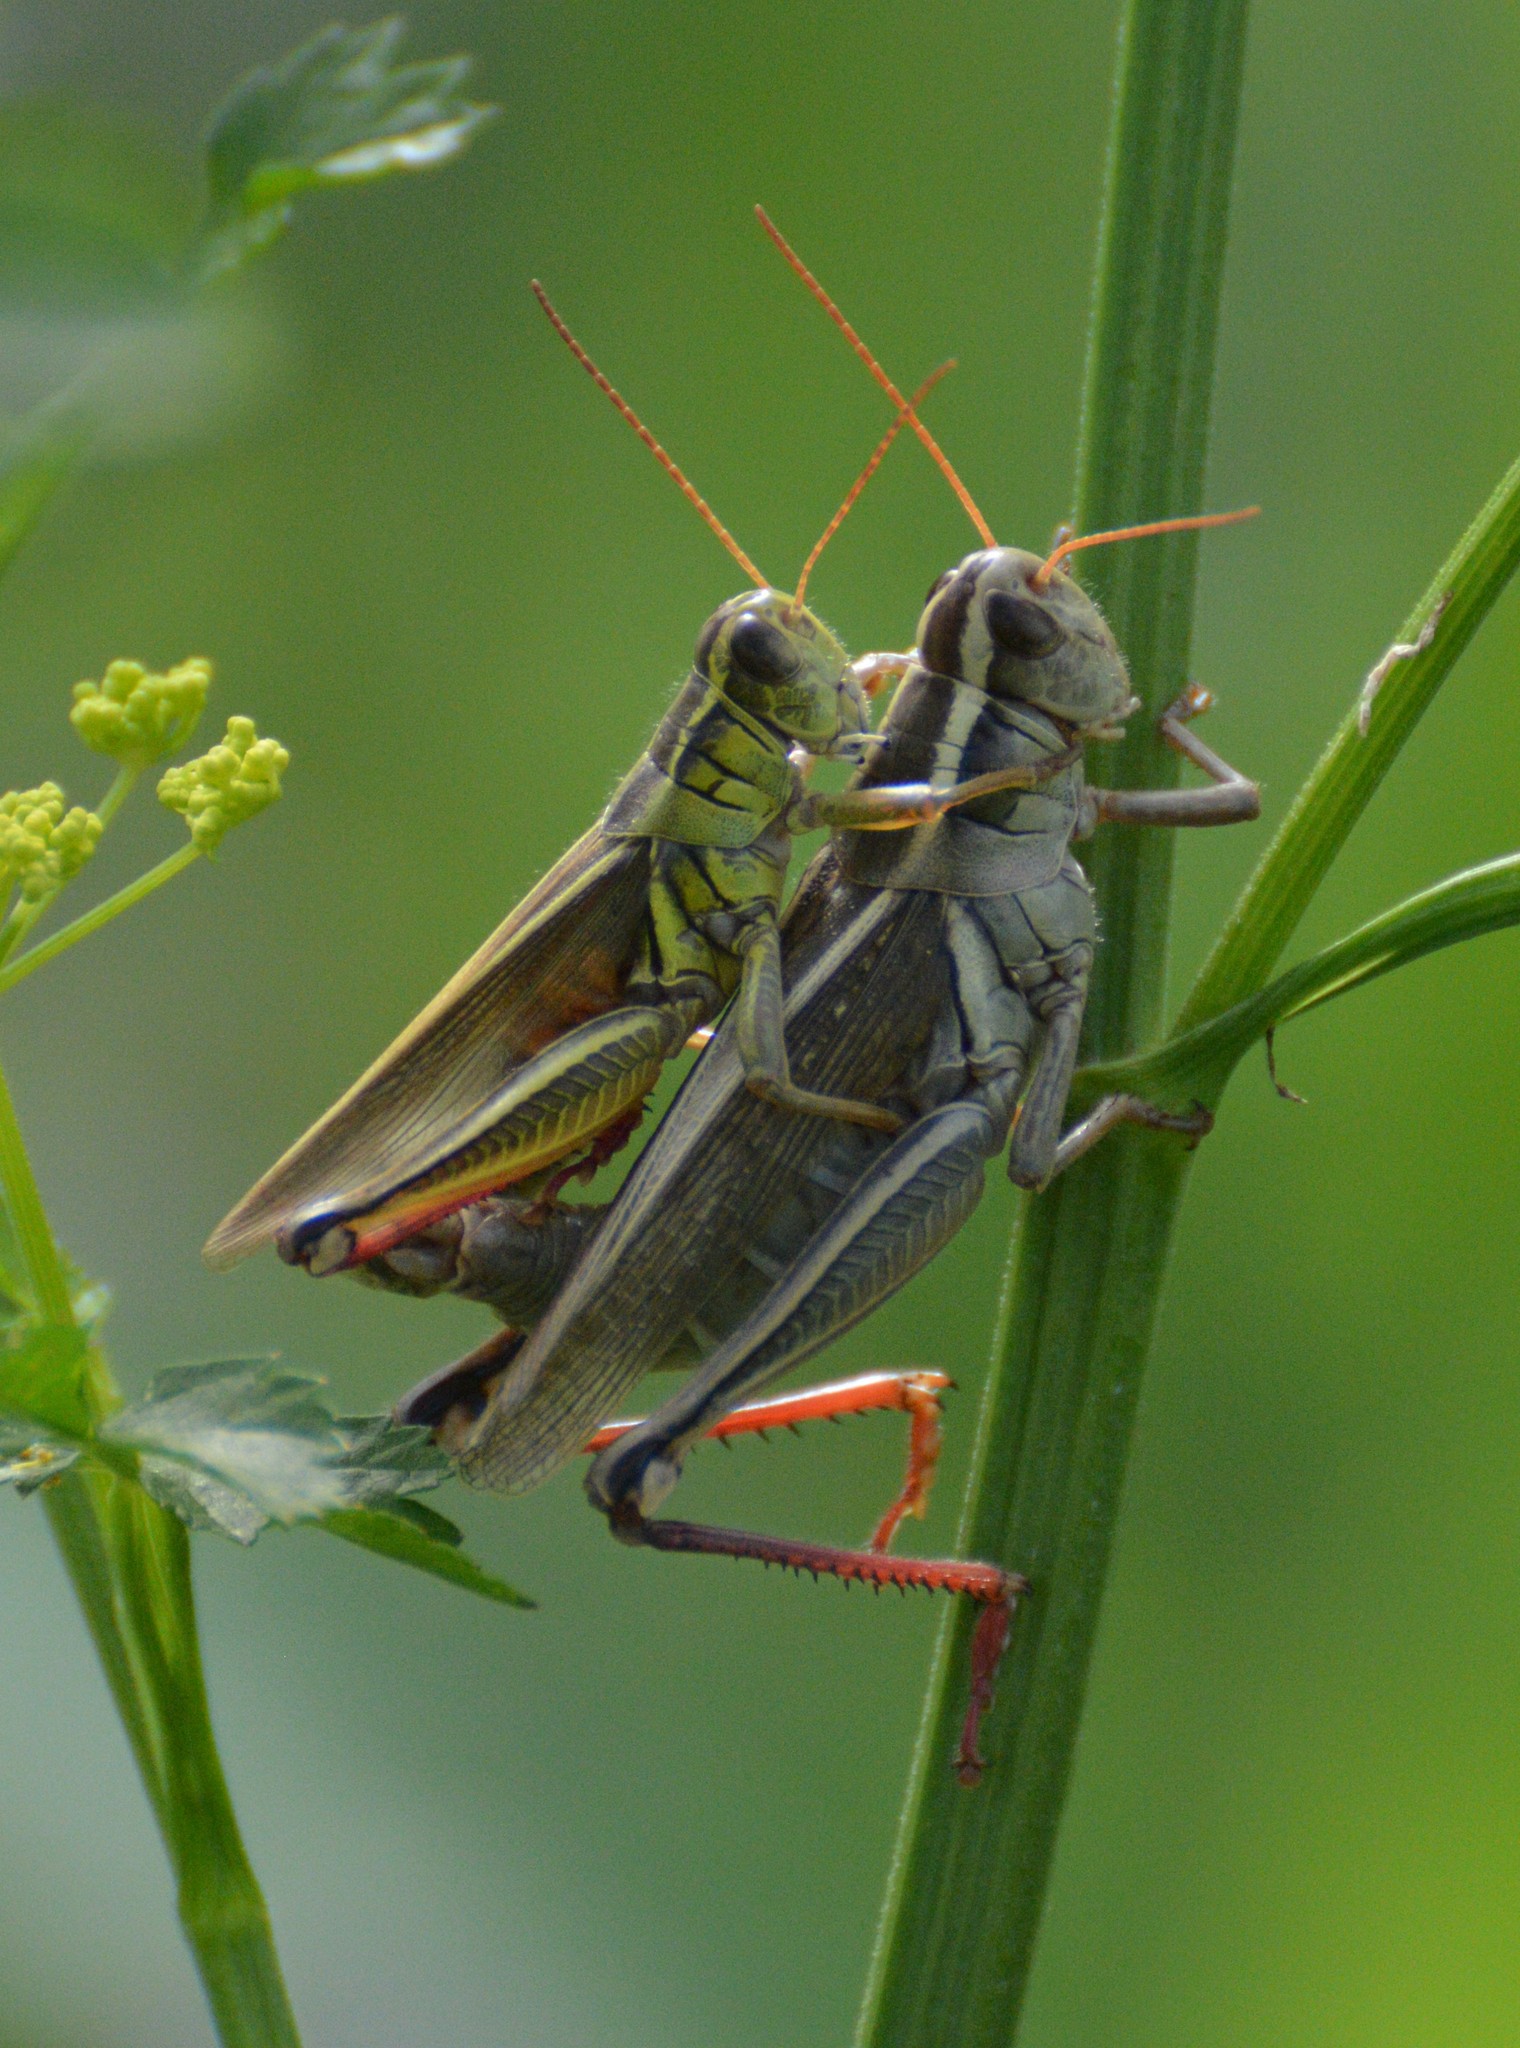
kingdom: Animalia
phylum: Arthropoda
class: Insecta
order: Orthoptera
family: Acrididae
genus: Melanoplus
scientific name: Melanoplus bivittatus
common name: Two-striped grasshopper
